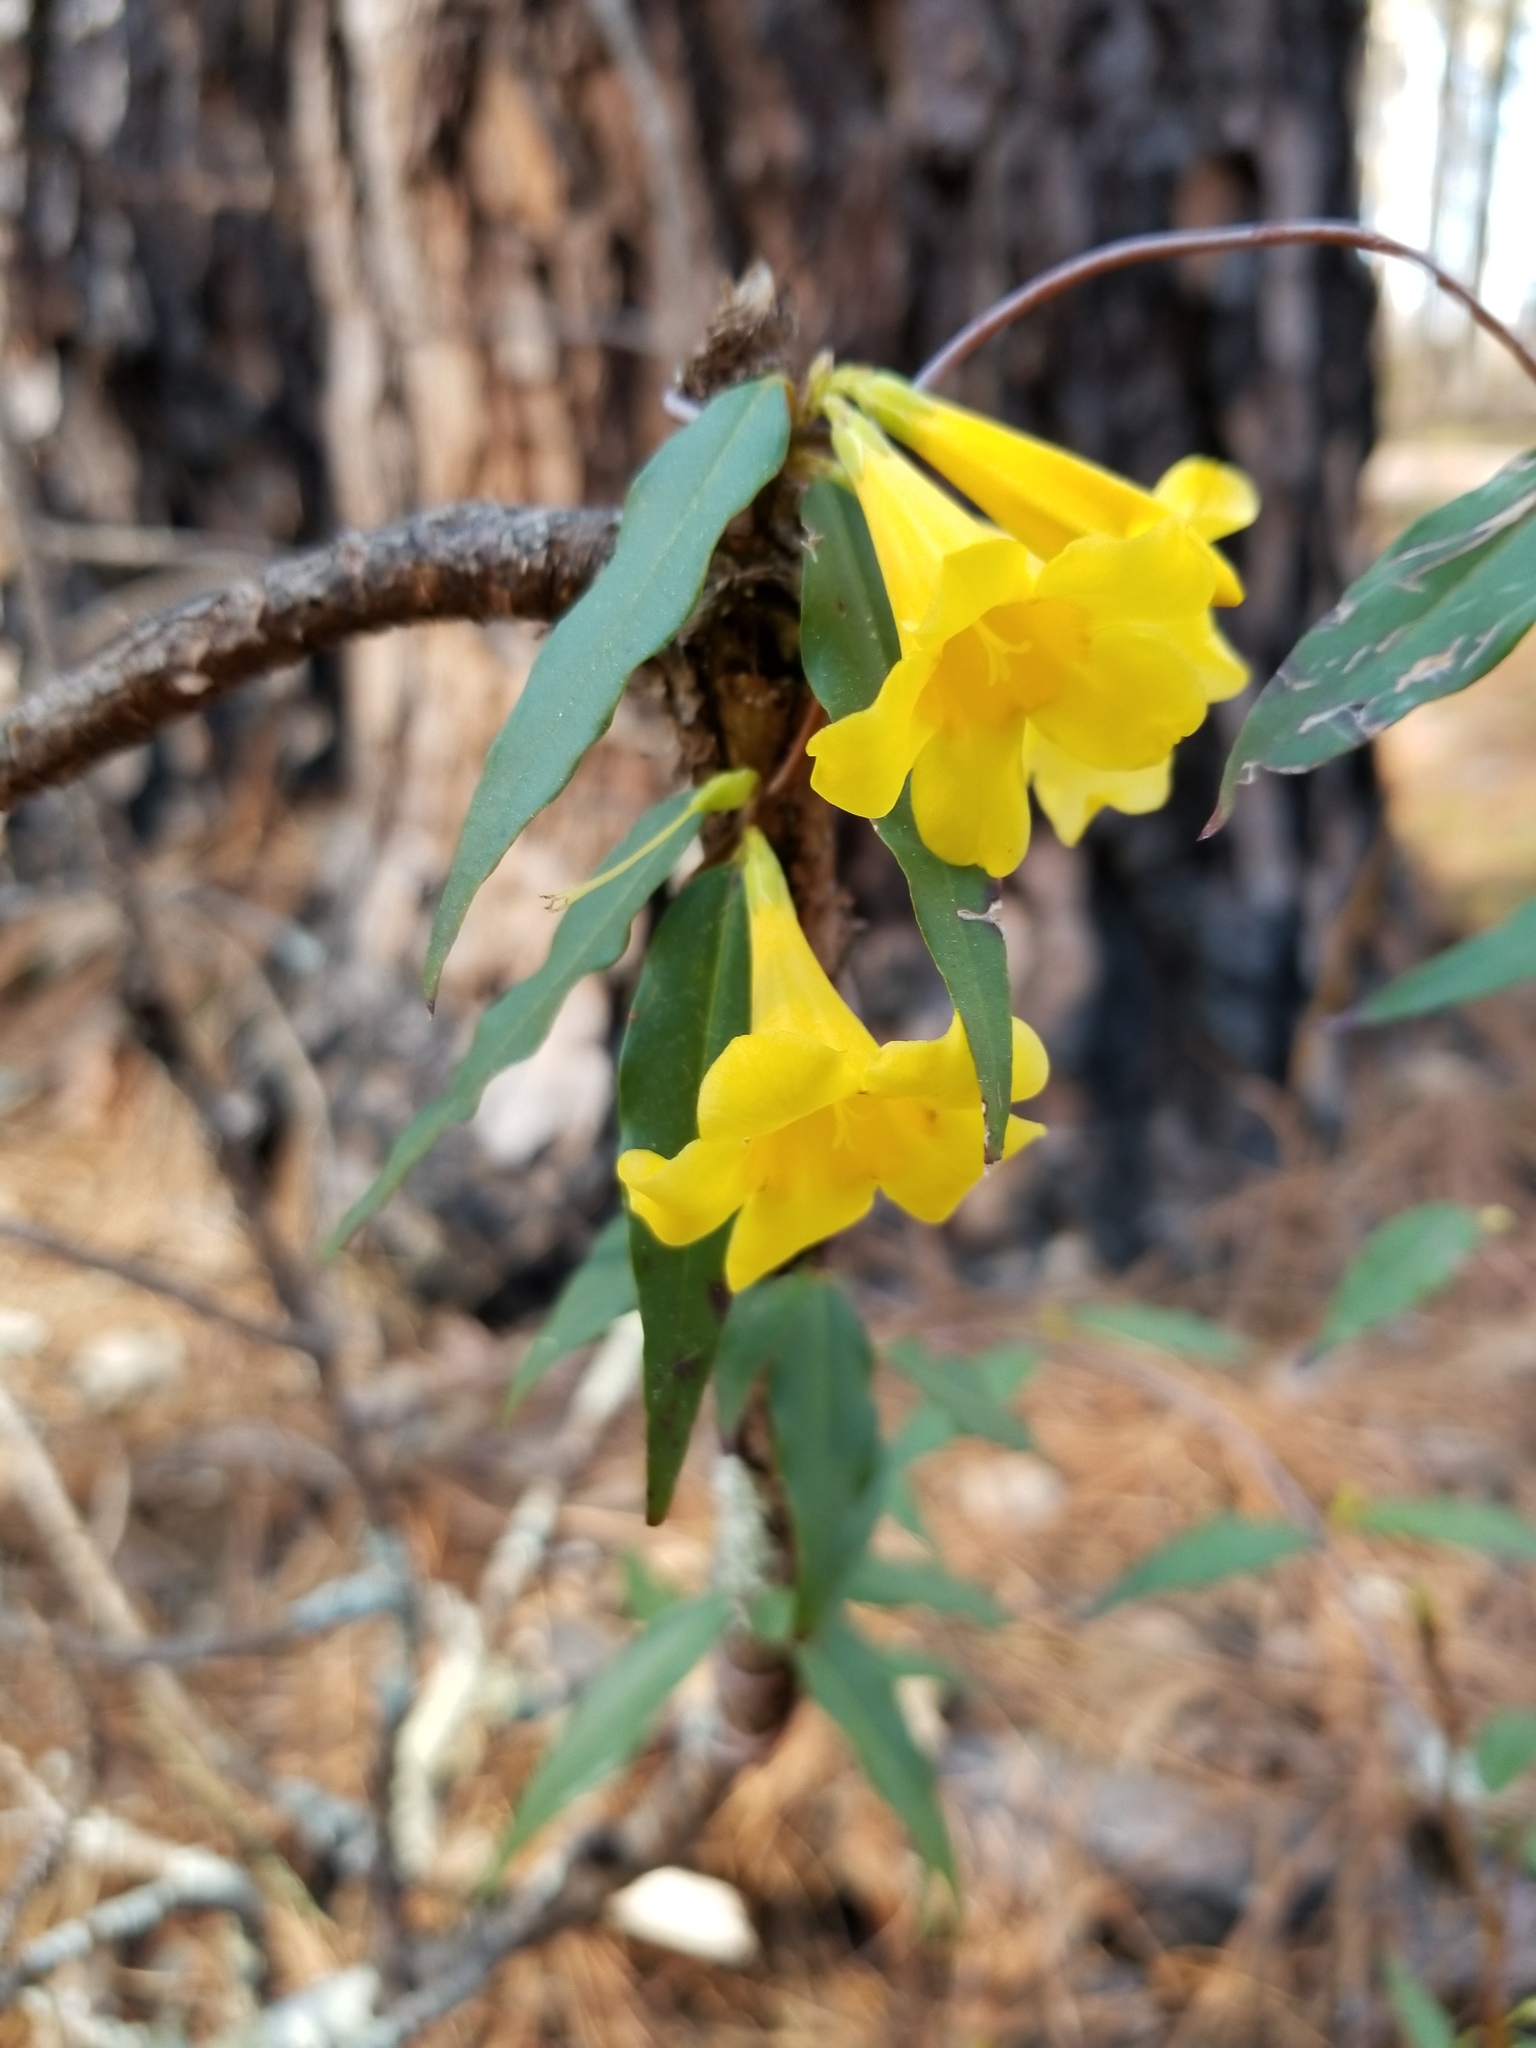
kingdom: Plantae
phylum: Tracheophyta
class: Magnoliopsida
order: Gentianales
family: Gelsemiaceae
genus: Gelsemium
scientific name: Gelsemium sempervirens
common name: Carolina-jasmine
